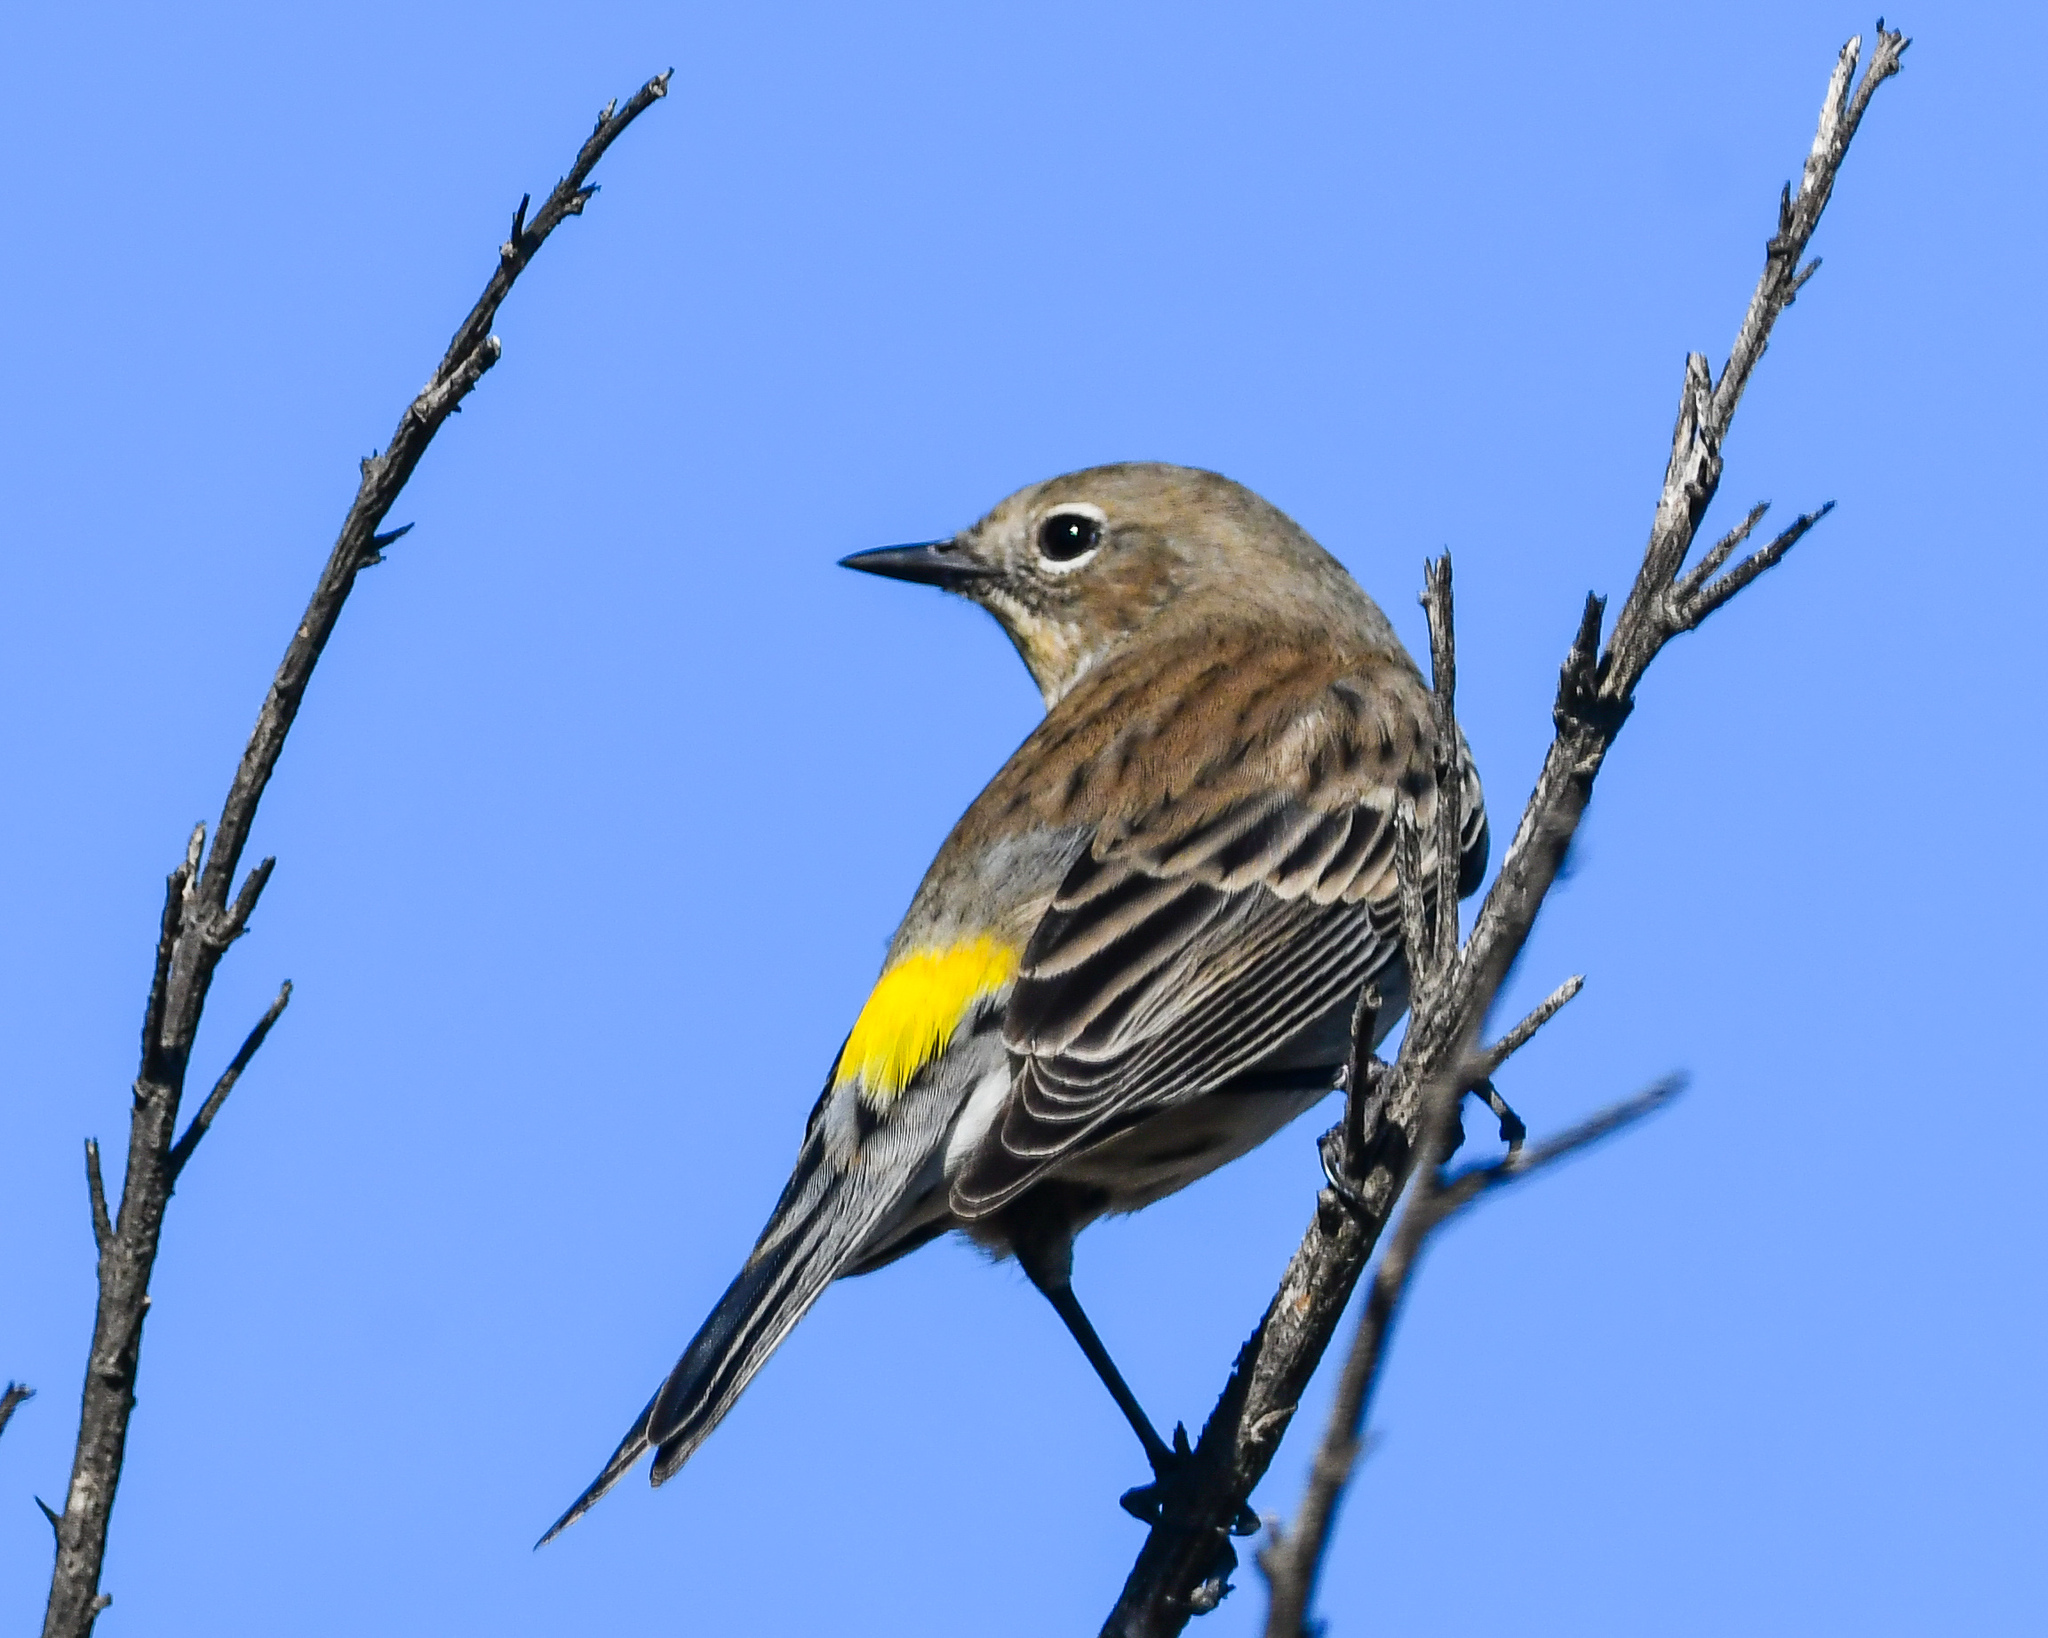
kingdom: Animalia
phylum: Chordata
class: Aves
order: Passeriformes
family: Parulidae
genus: Setophaga
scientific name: Setophaga coronata
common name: Myrtle warbler
